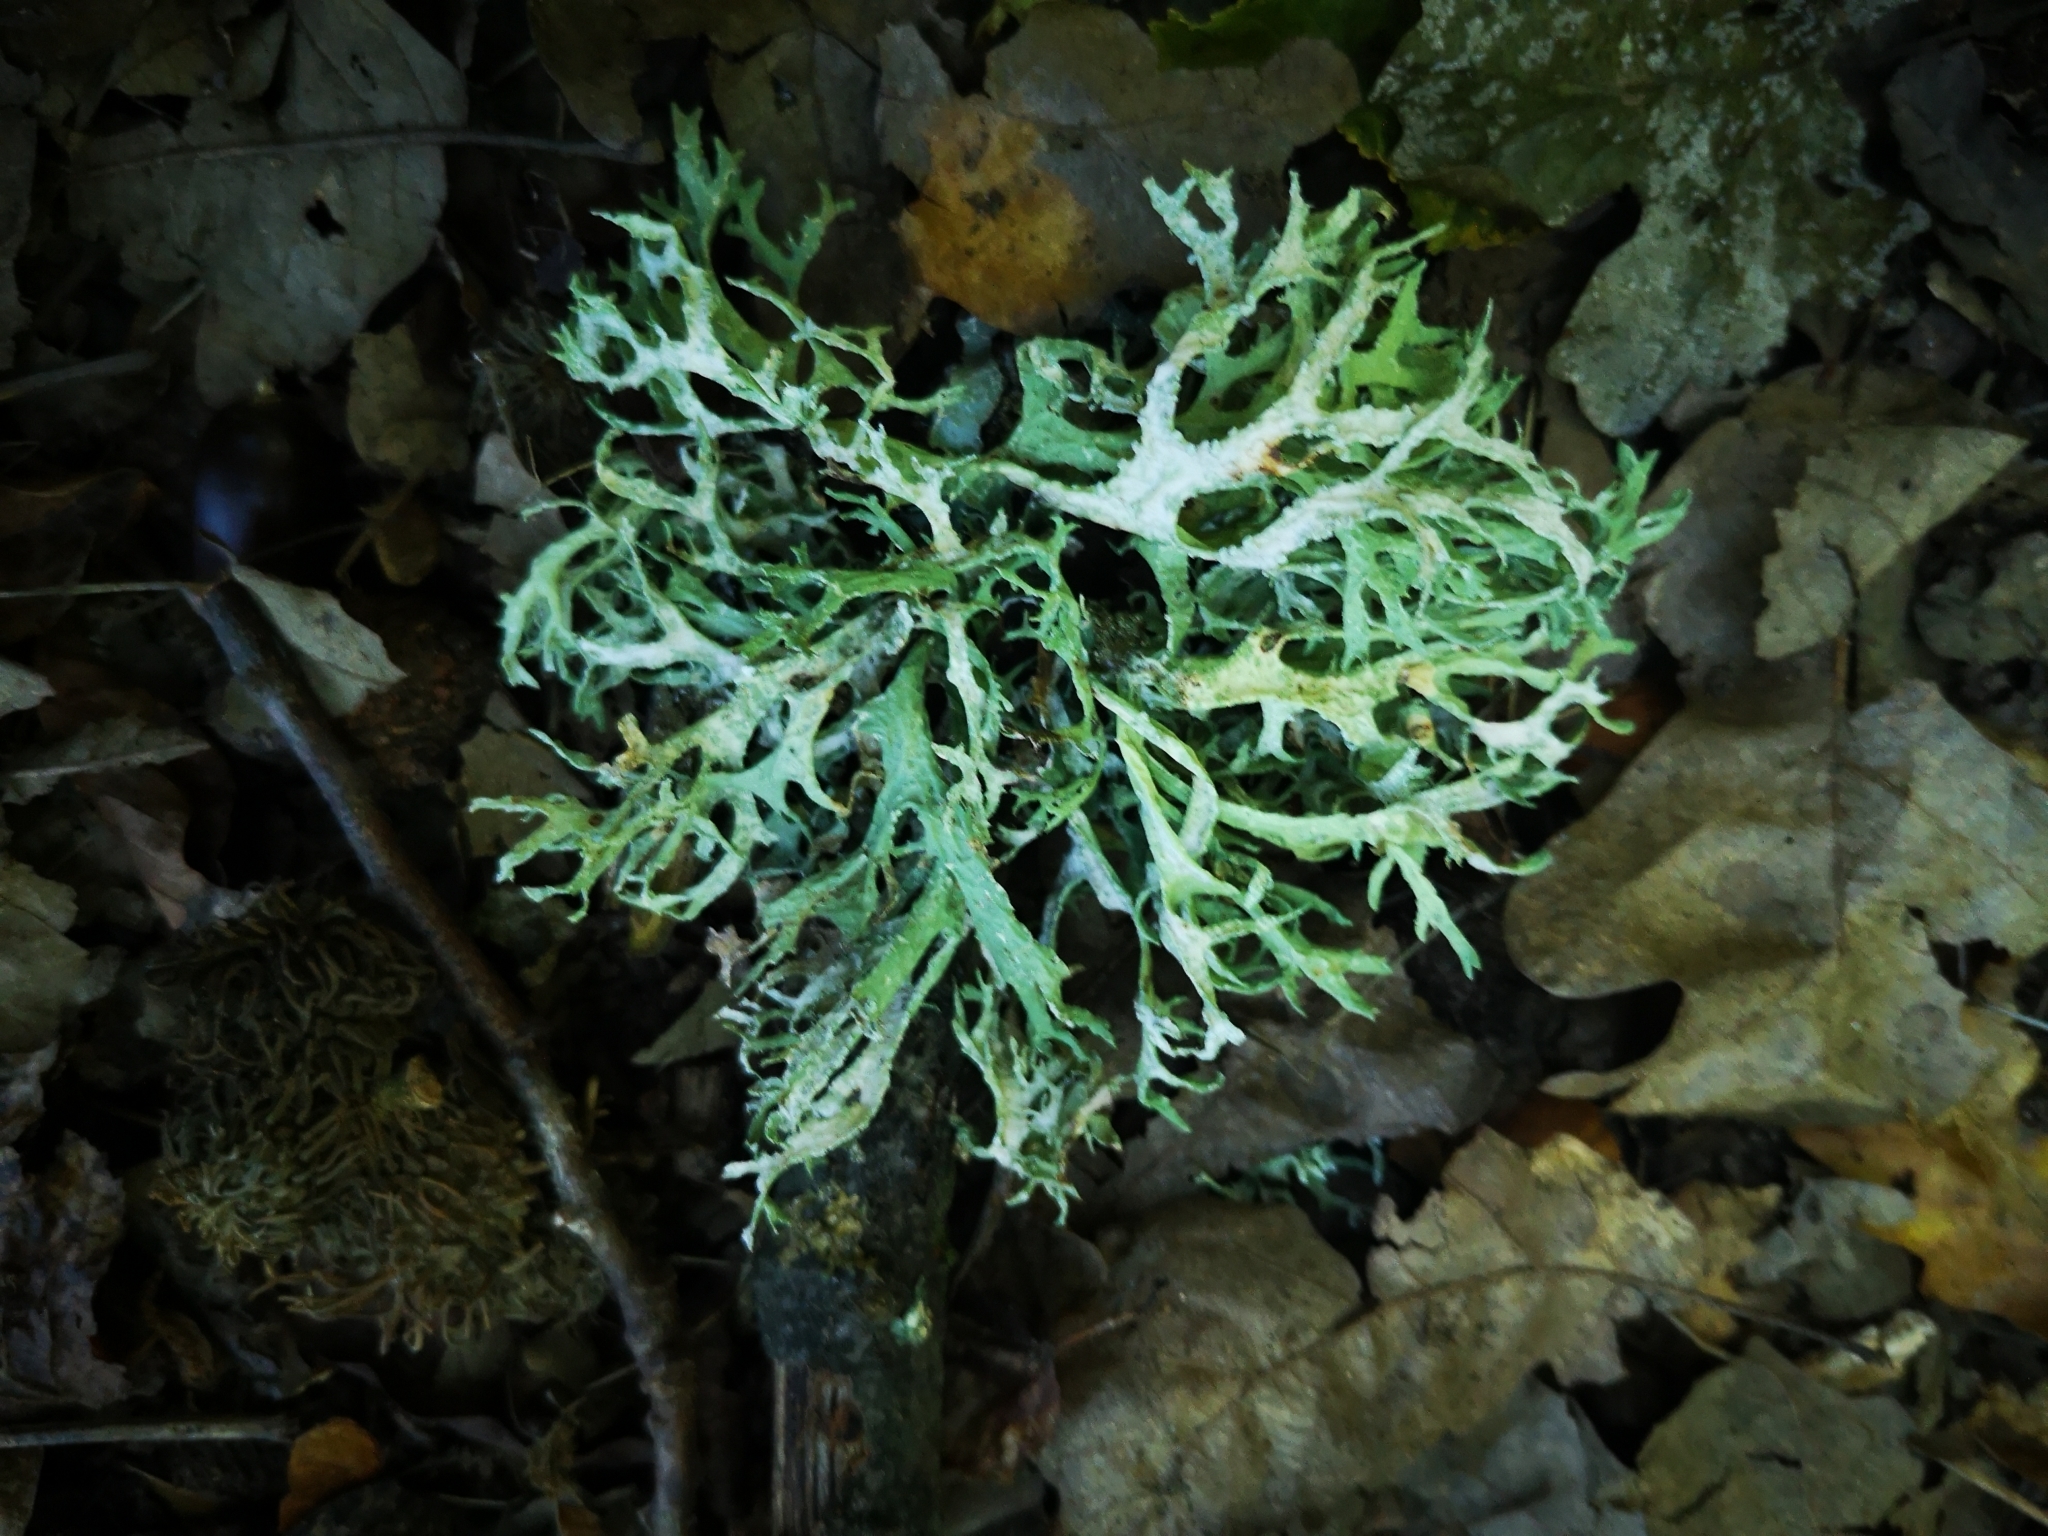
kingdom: Fungi
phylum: Ascomycota
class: Lecanoromycetes
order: Lecanorales
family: Parmeliaceae
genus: Evernia
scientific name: Evernia prunastri
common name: Oak moss
